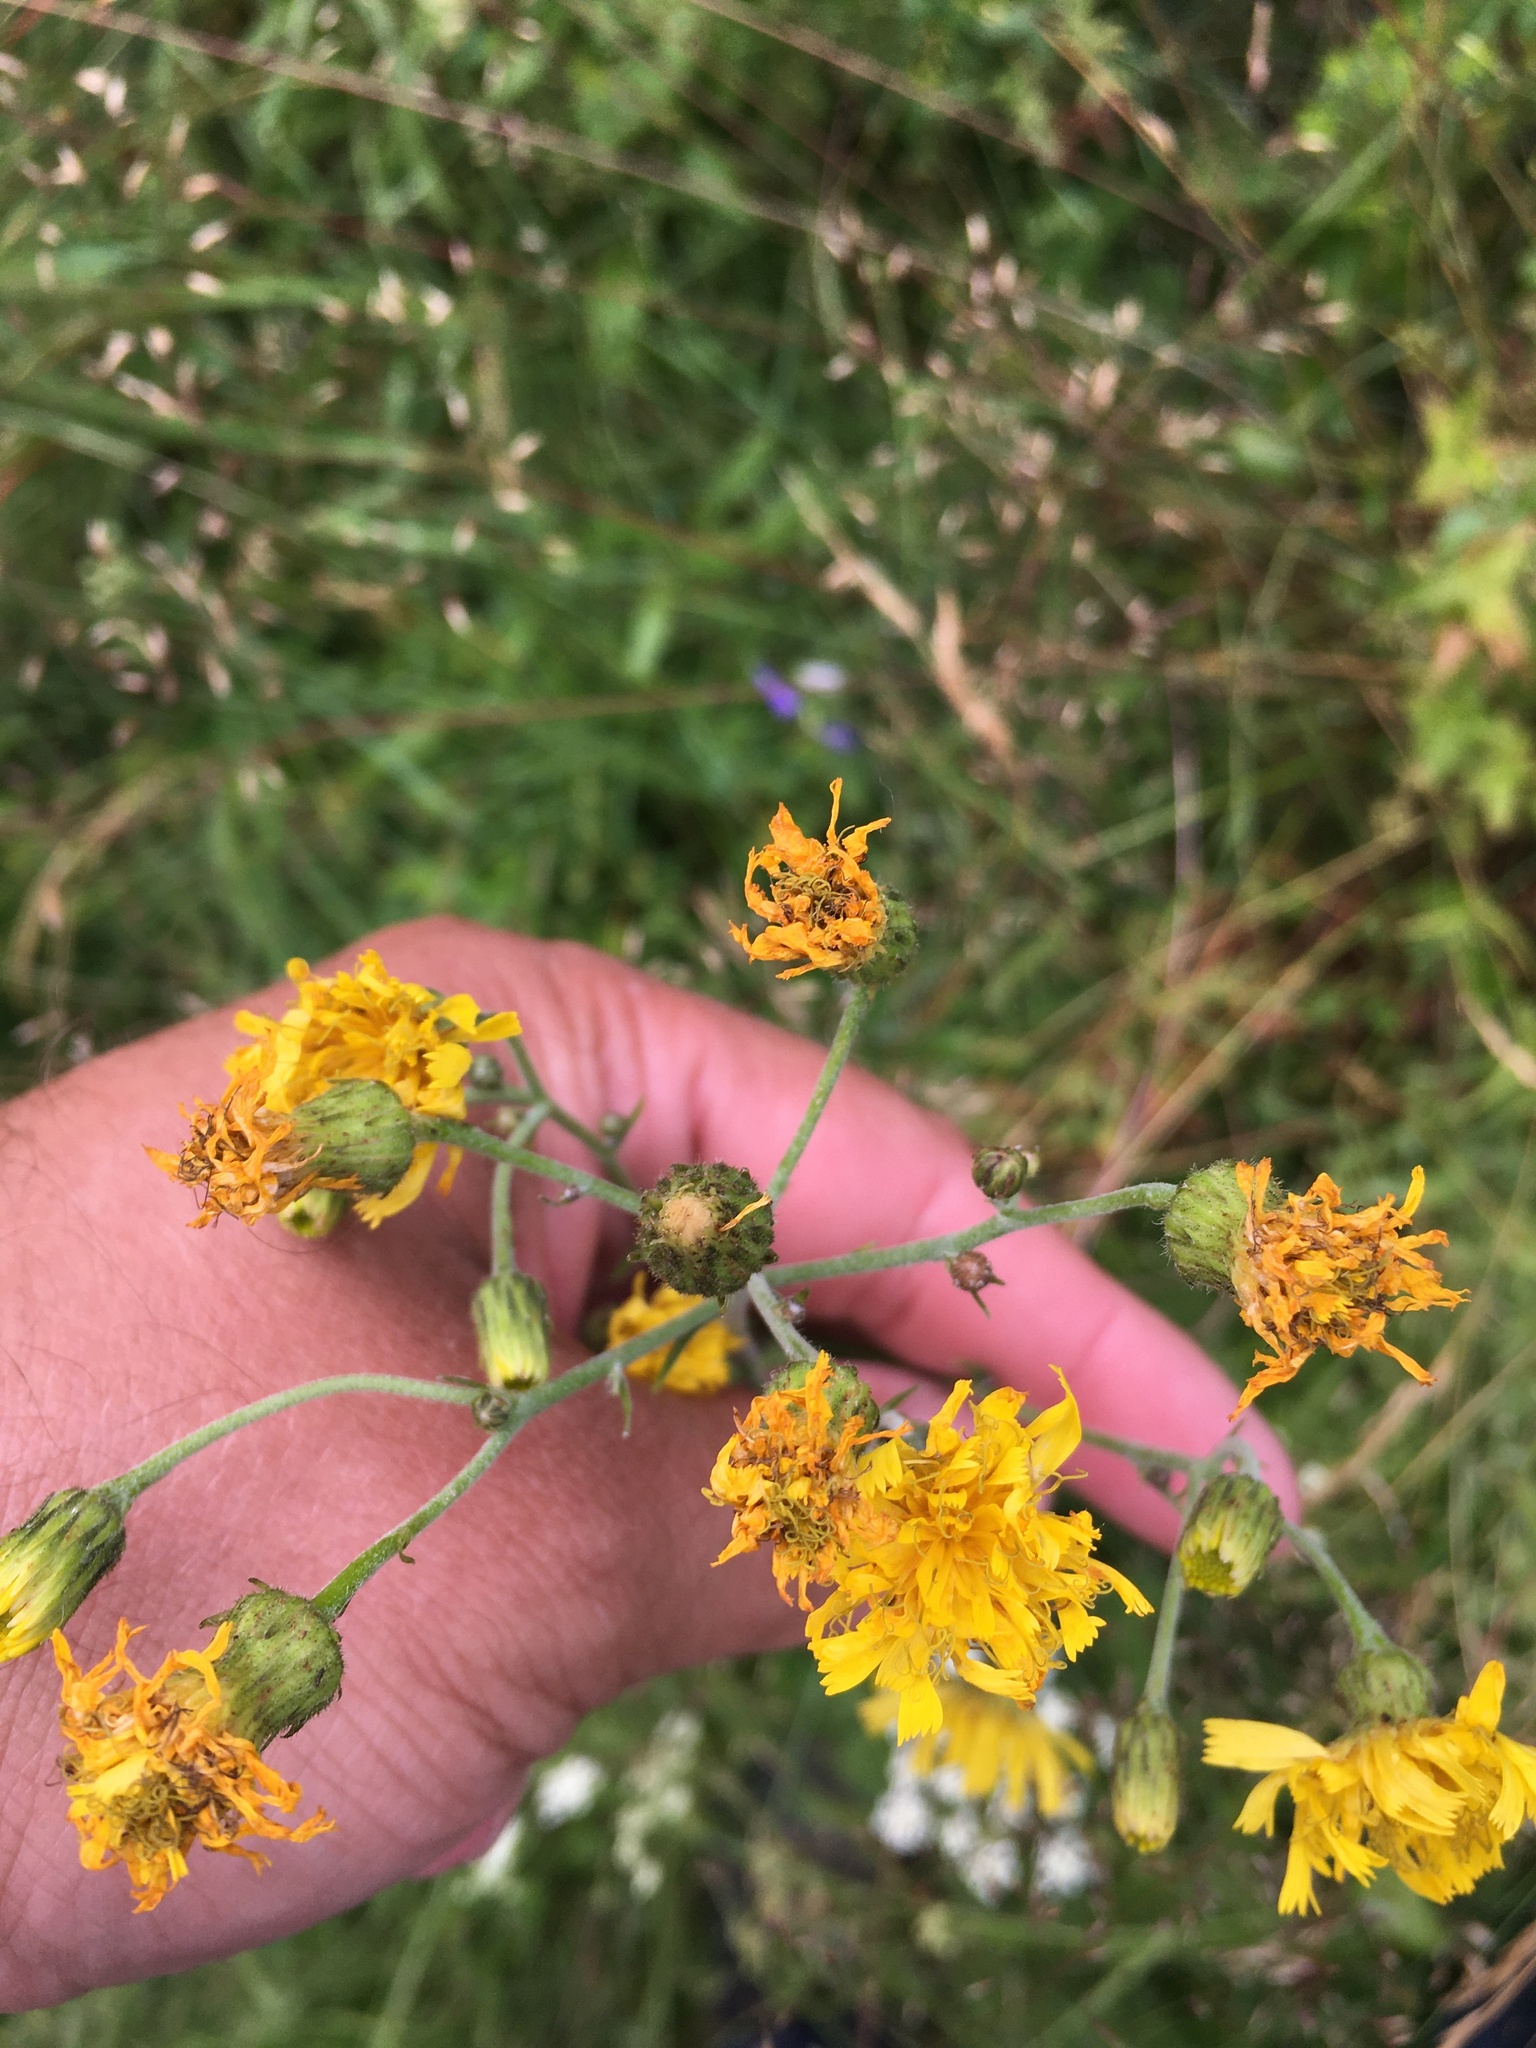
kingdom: Plantae
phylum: Tracheophyta
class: Magnoliopsida
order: Asterales
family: Asteraceae
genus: Hieracium
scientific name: Hieracium umbellatum
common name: Northern hawkweed
